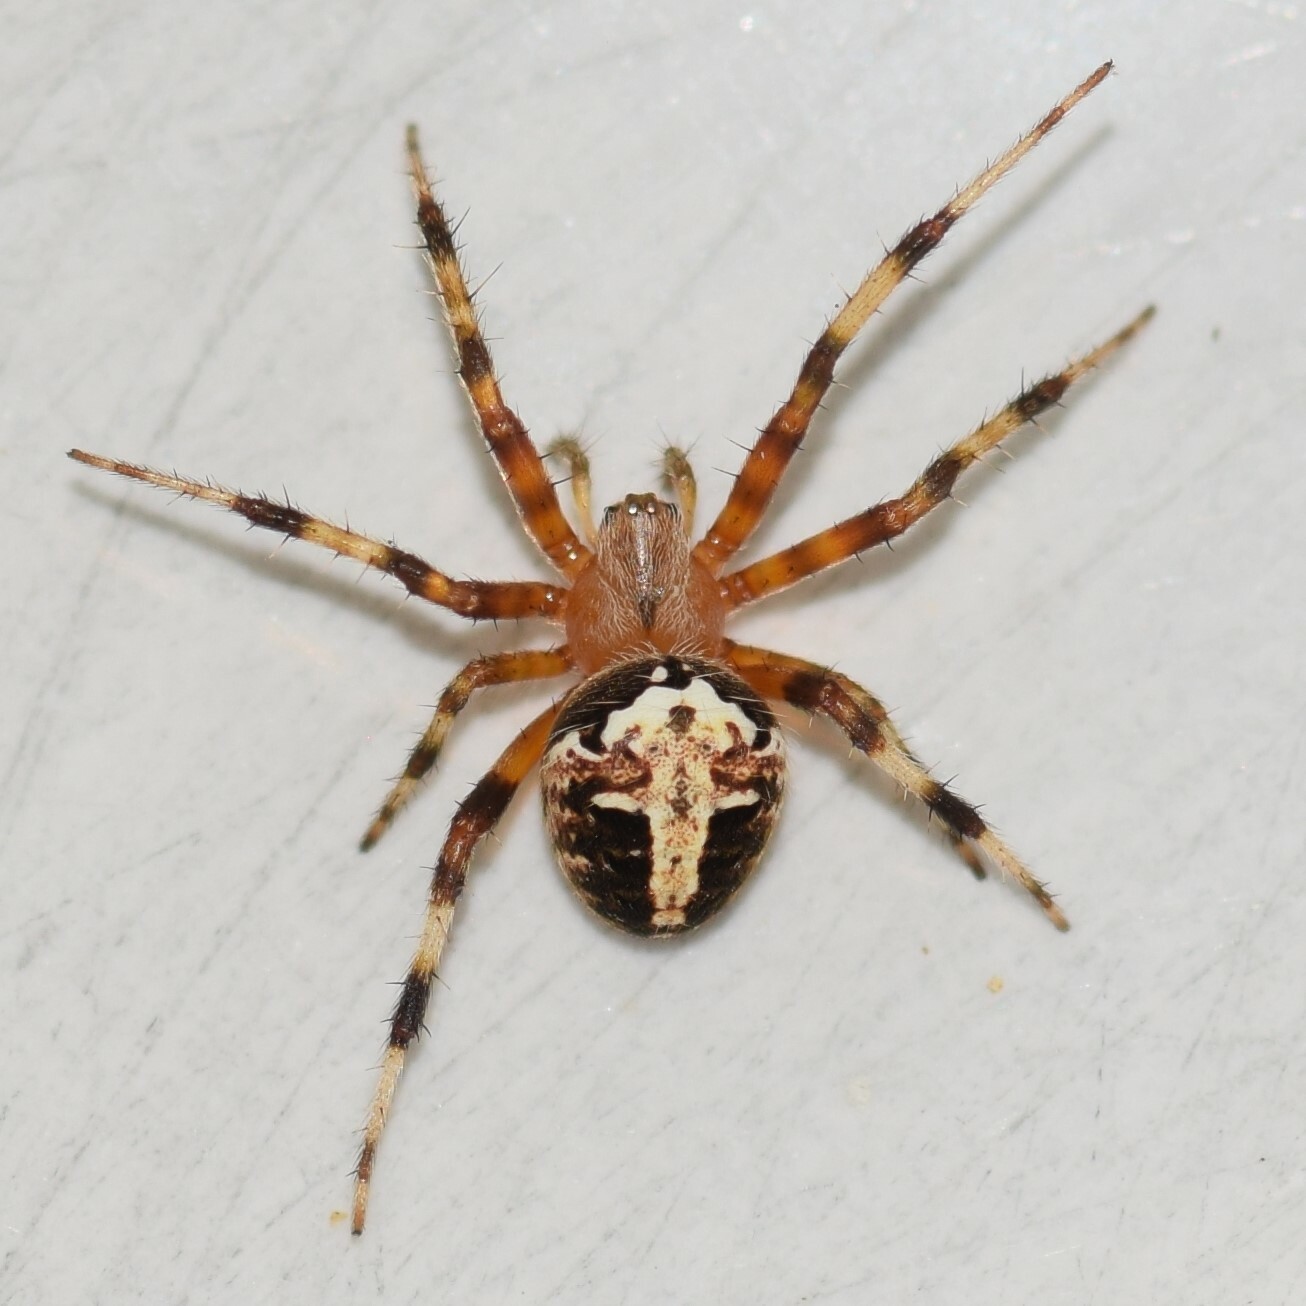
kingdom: Animalia
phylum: Arthropoda
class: Arachnida
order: Araneae
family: Araneidae
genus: Neoscona
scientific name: Neoscona domiciliorum
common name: Red-femured spotted orbweaver
